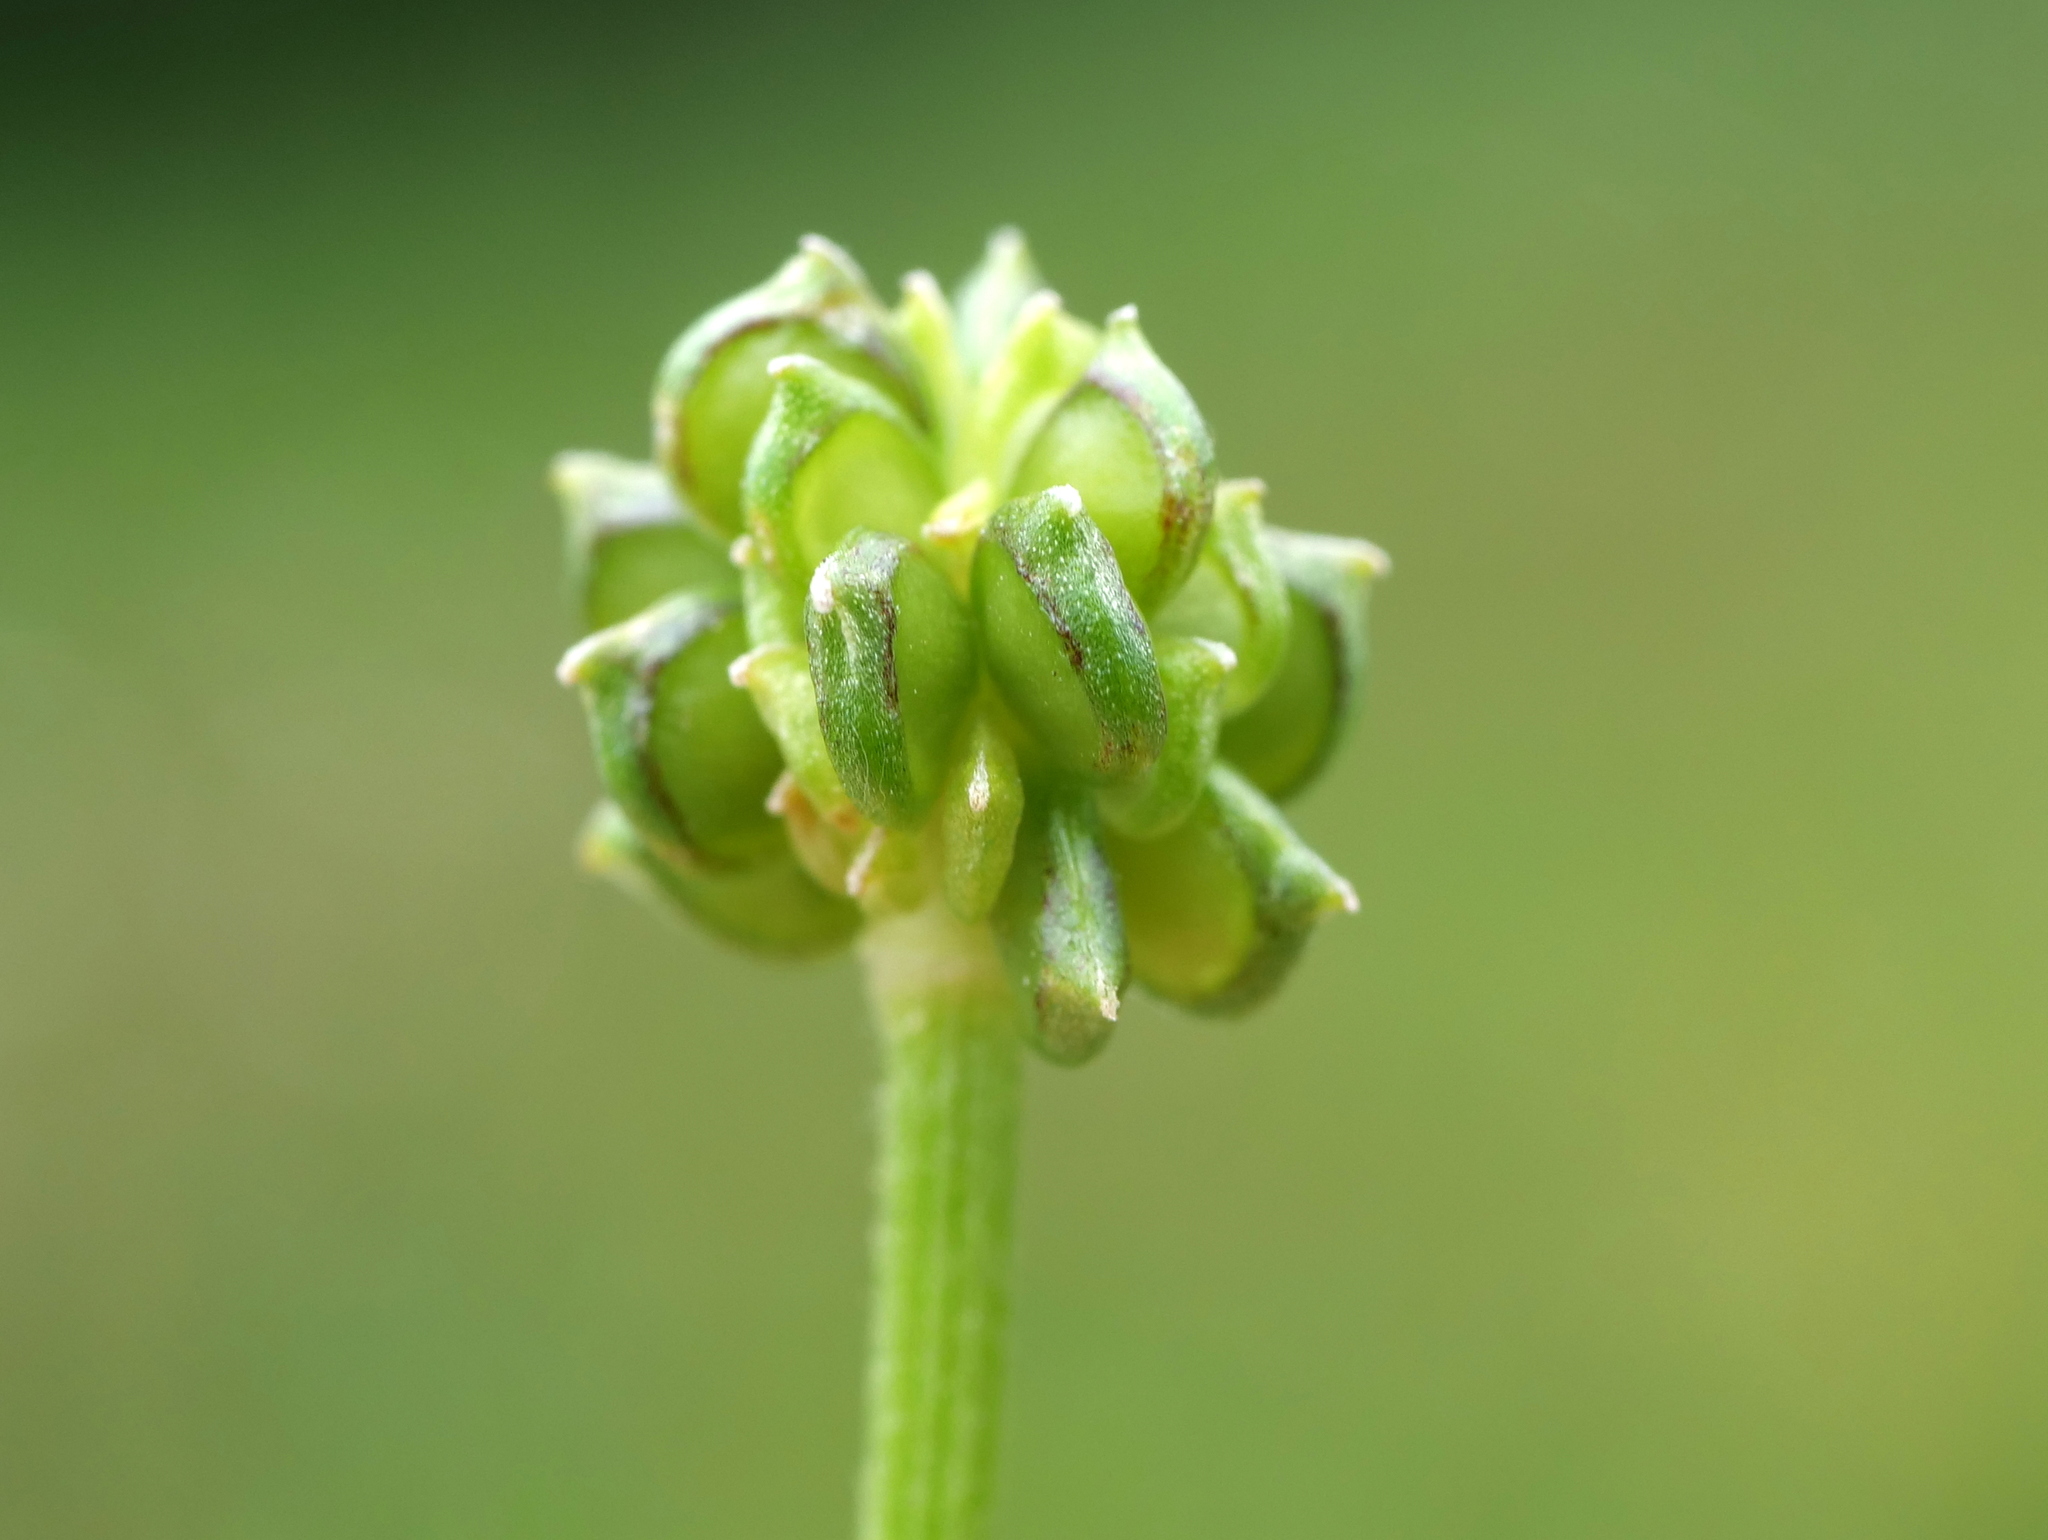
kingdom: Plantae
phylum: Tracheophyta
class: Magnoliopsida
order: Ranunculales
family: Ranunculaceae
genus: Ranunculus
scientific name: Ranunculus bulbosus
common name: Bulbous buttercup
